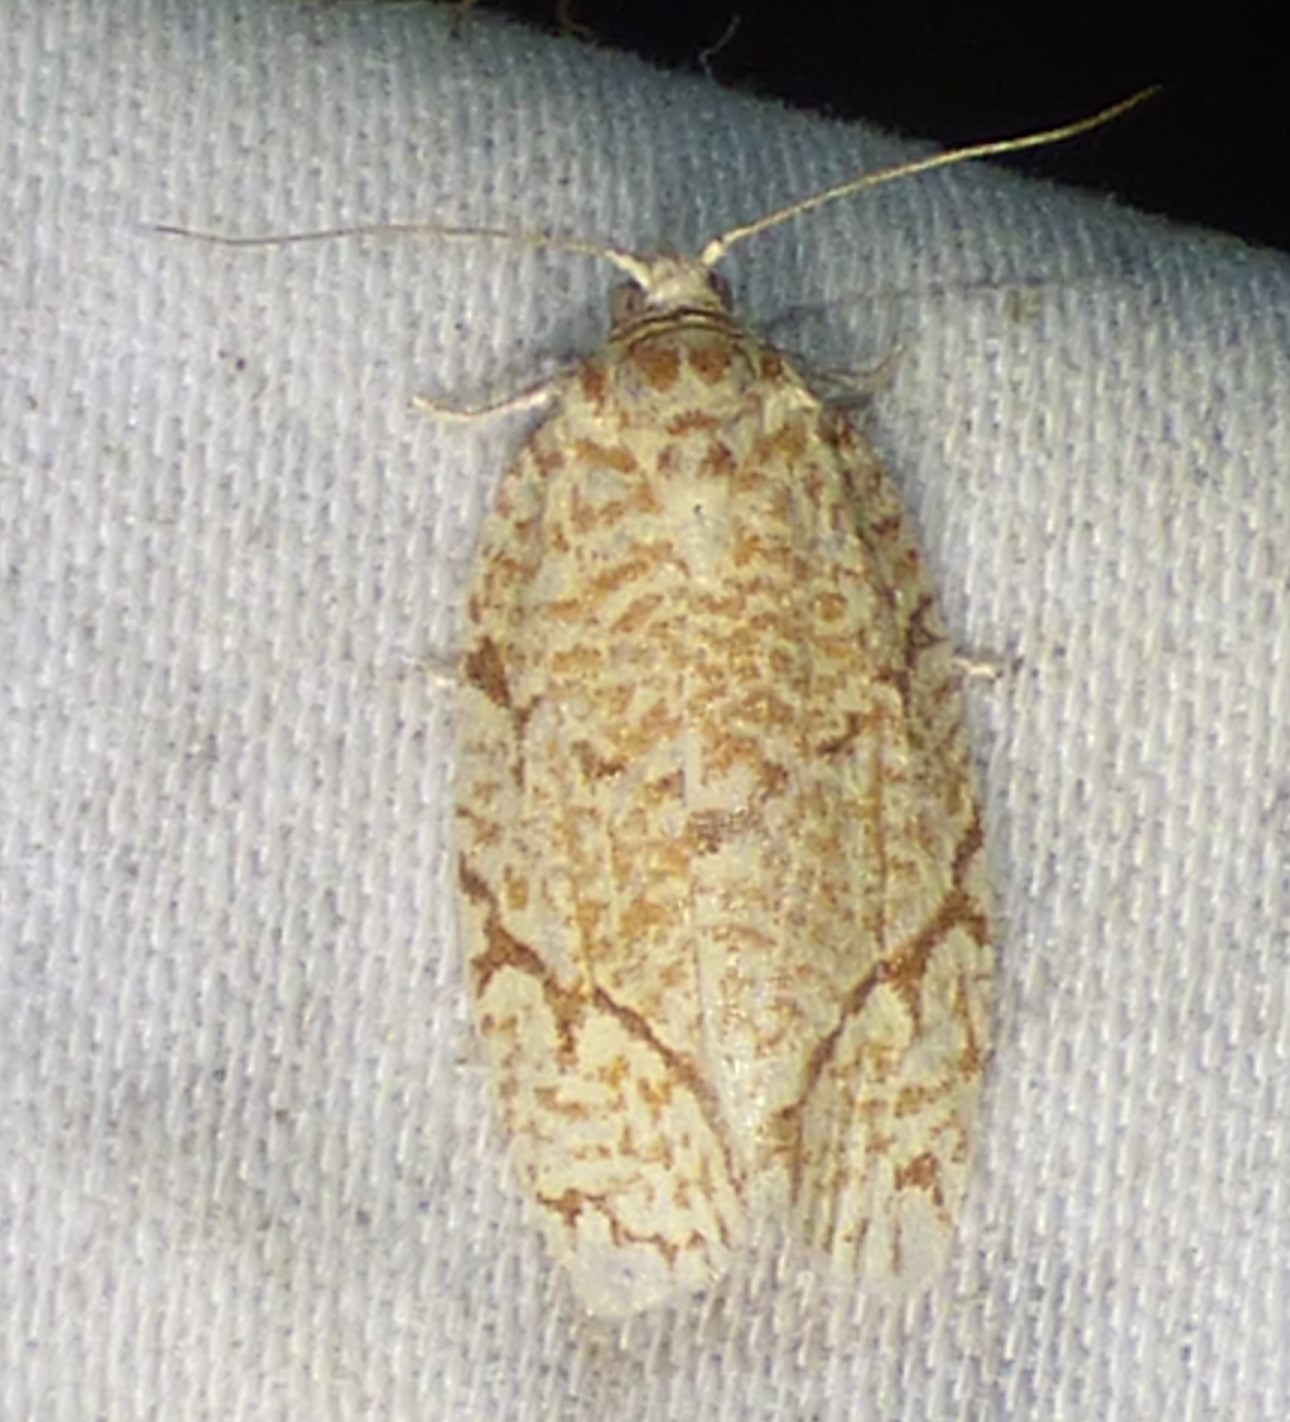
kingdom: Animalia
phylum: Arthropoda
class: Insecta
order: Lepidoptera
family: Tortricidae
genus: Argyrotaenia
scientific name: Argyrotaenia quercifoliana
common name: Yellow-winged oak leafroller moth
